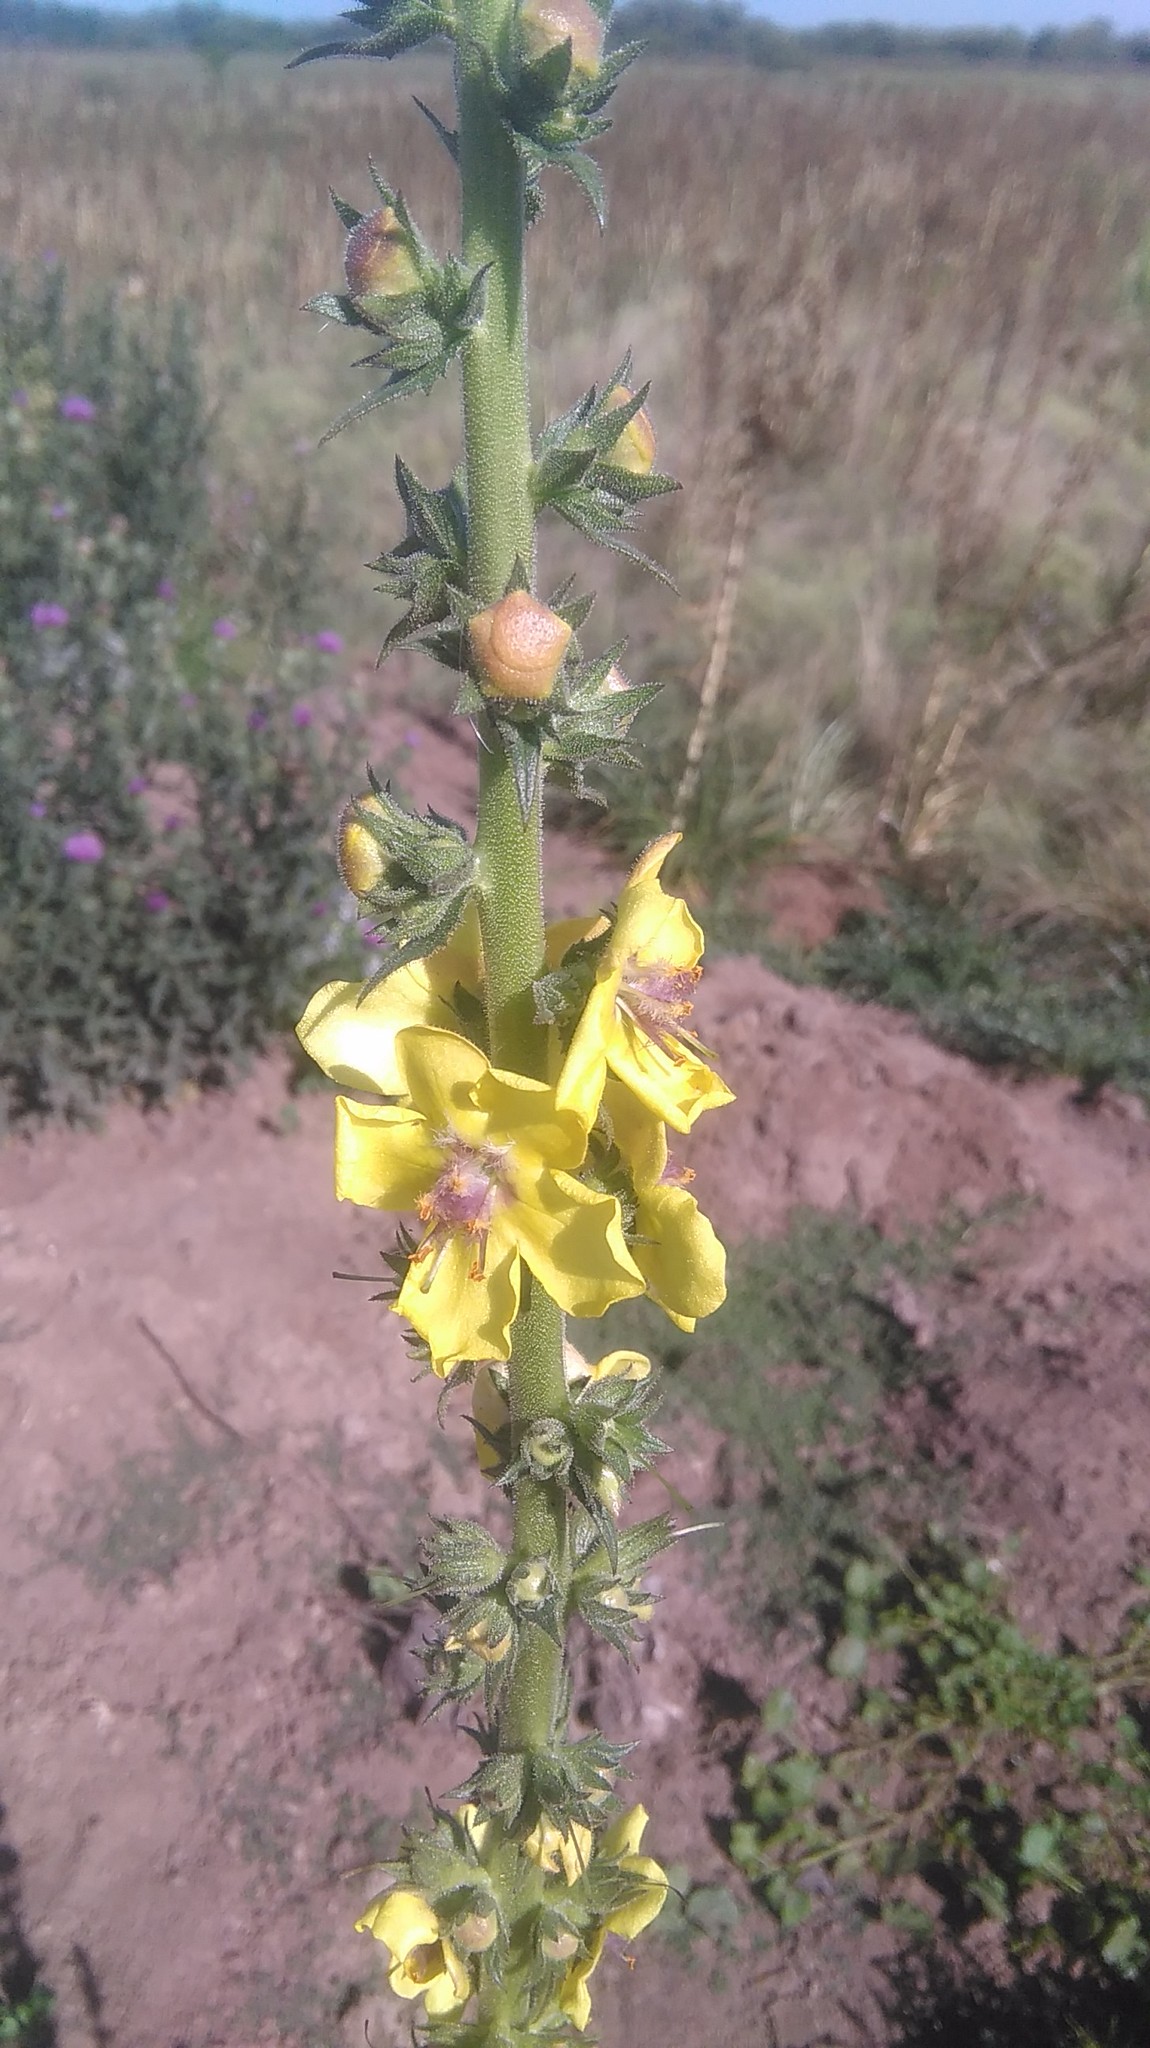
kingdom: Plantae
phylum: Tracheophyta
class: Magnoliopsida
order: Lamiales
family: Scrophulariaceae
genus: Verbascum
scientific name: Verbascum virgatum
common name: Twiggy mullein
